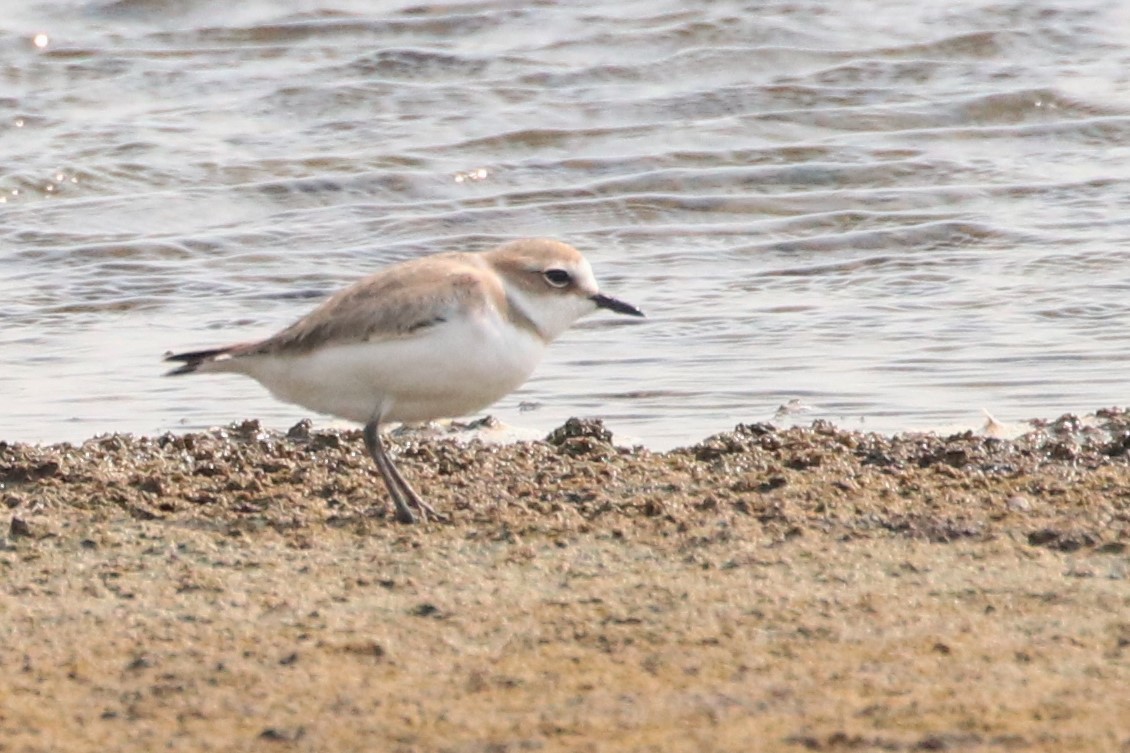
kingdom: Animalia
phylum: Chordata
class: Aves
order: Charadriiformes
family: Charadriidae
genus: Charadrius
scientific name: Charadrius alexandrinus
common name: Kentish plover
